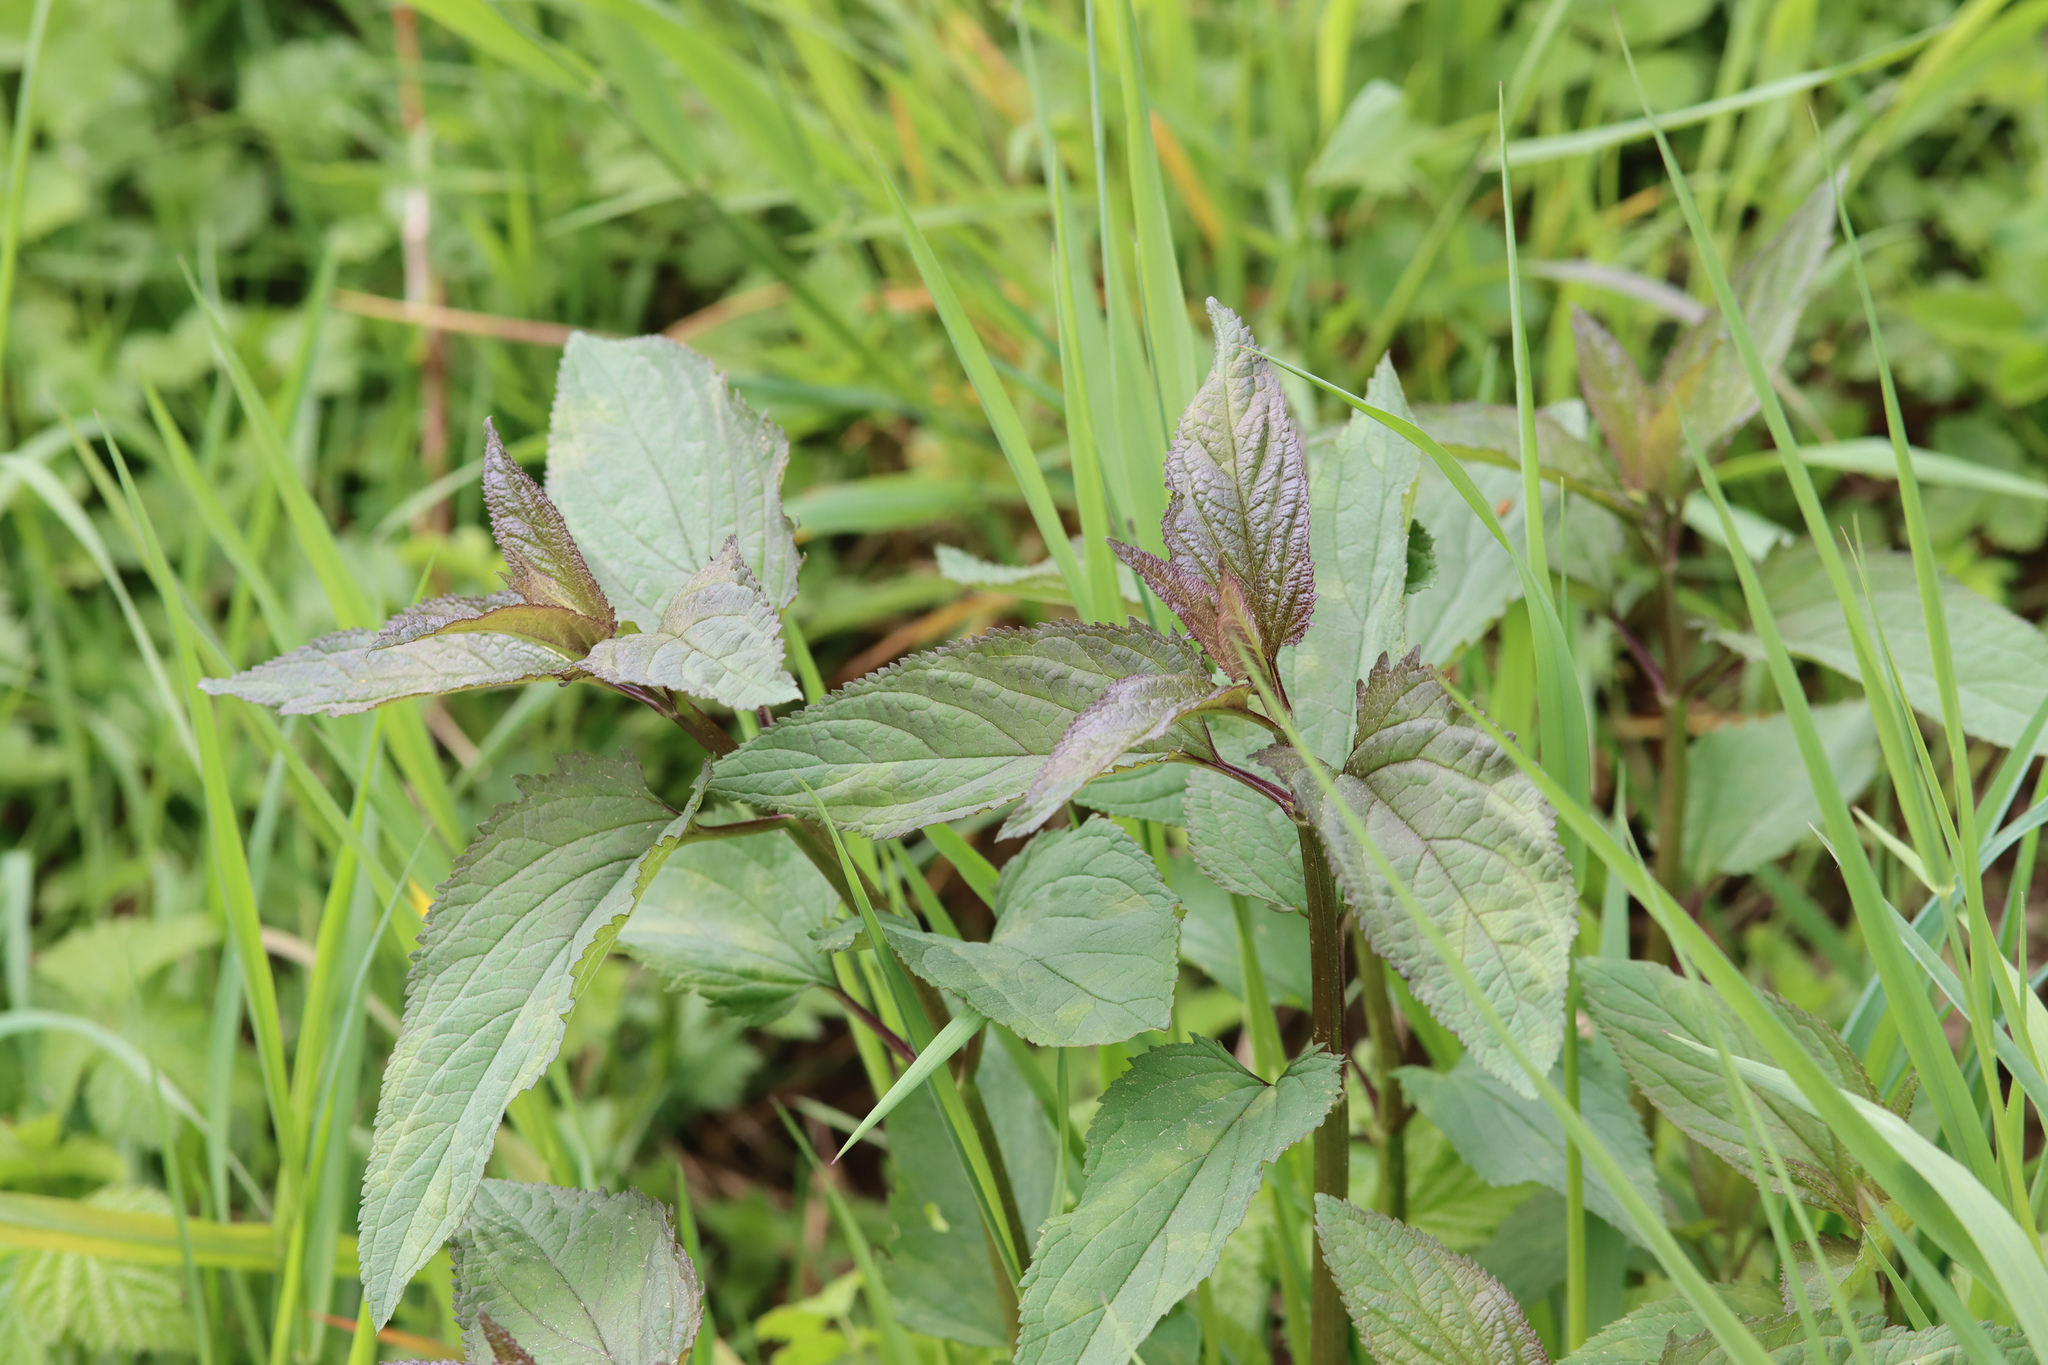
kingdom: Plantae
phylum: Tracheophyta
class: Magnoliopsida
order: Lamiales
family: Scrophulariaceae
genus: Scrophularia
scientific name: Scrophularia nodosa
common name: Common figwort
